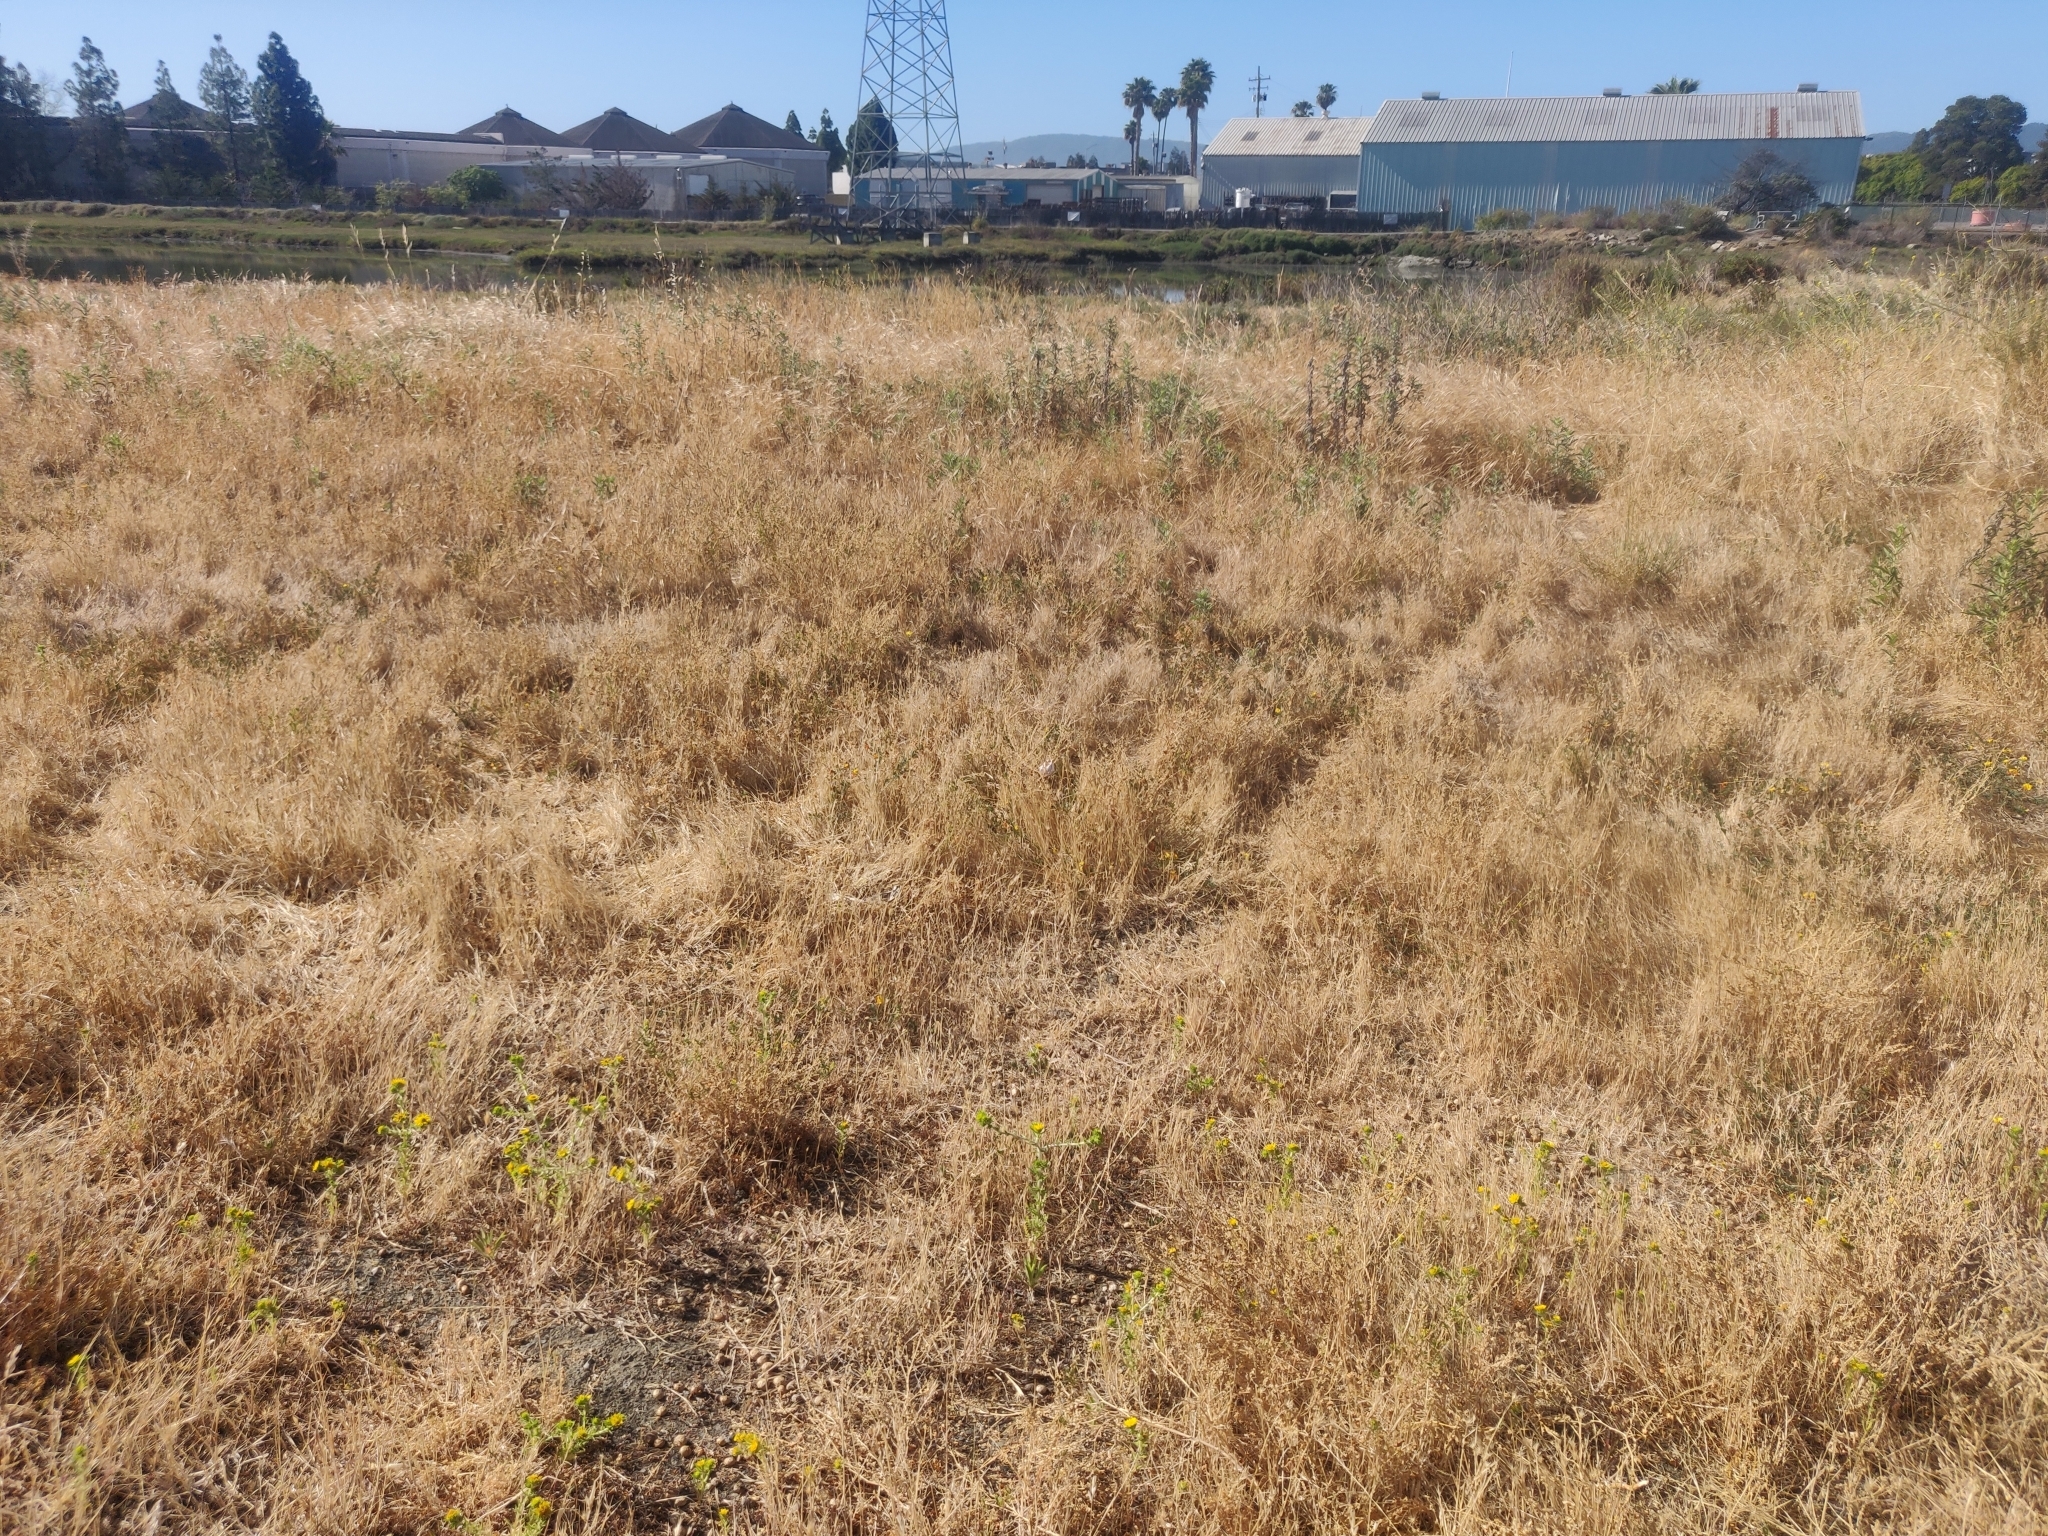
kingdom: Animalia
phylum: Mollusca
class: Gastropoda
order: Stylommatophora
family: Helicidae
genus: Otala
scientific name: Otala lactea
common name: Milk snail
